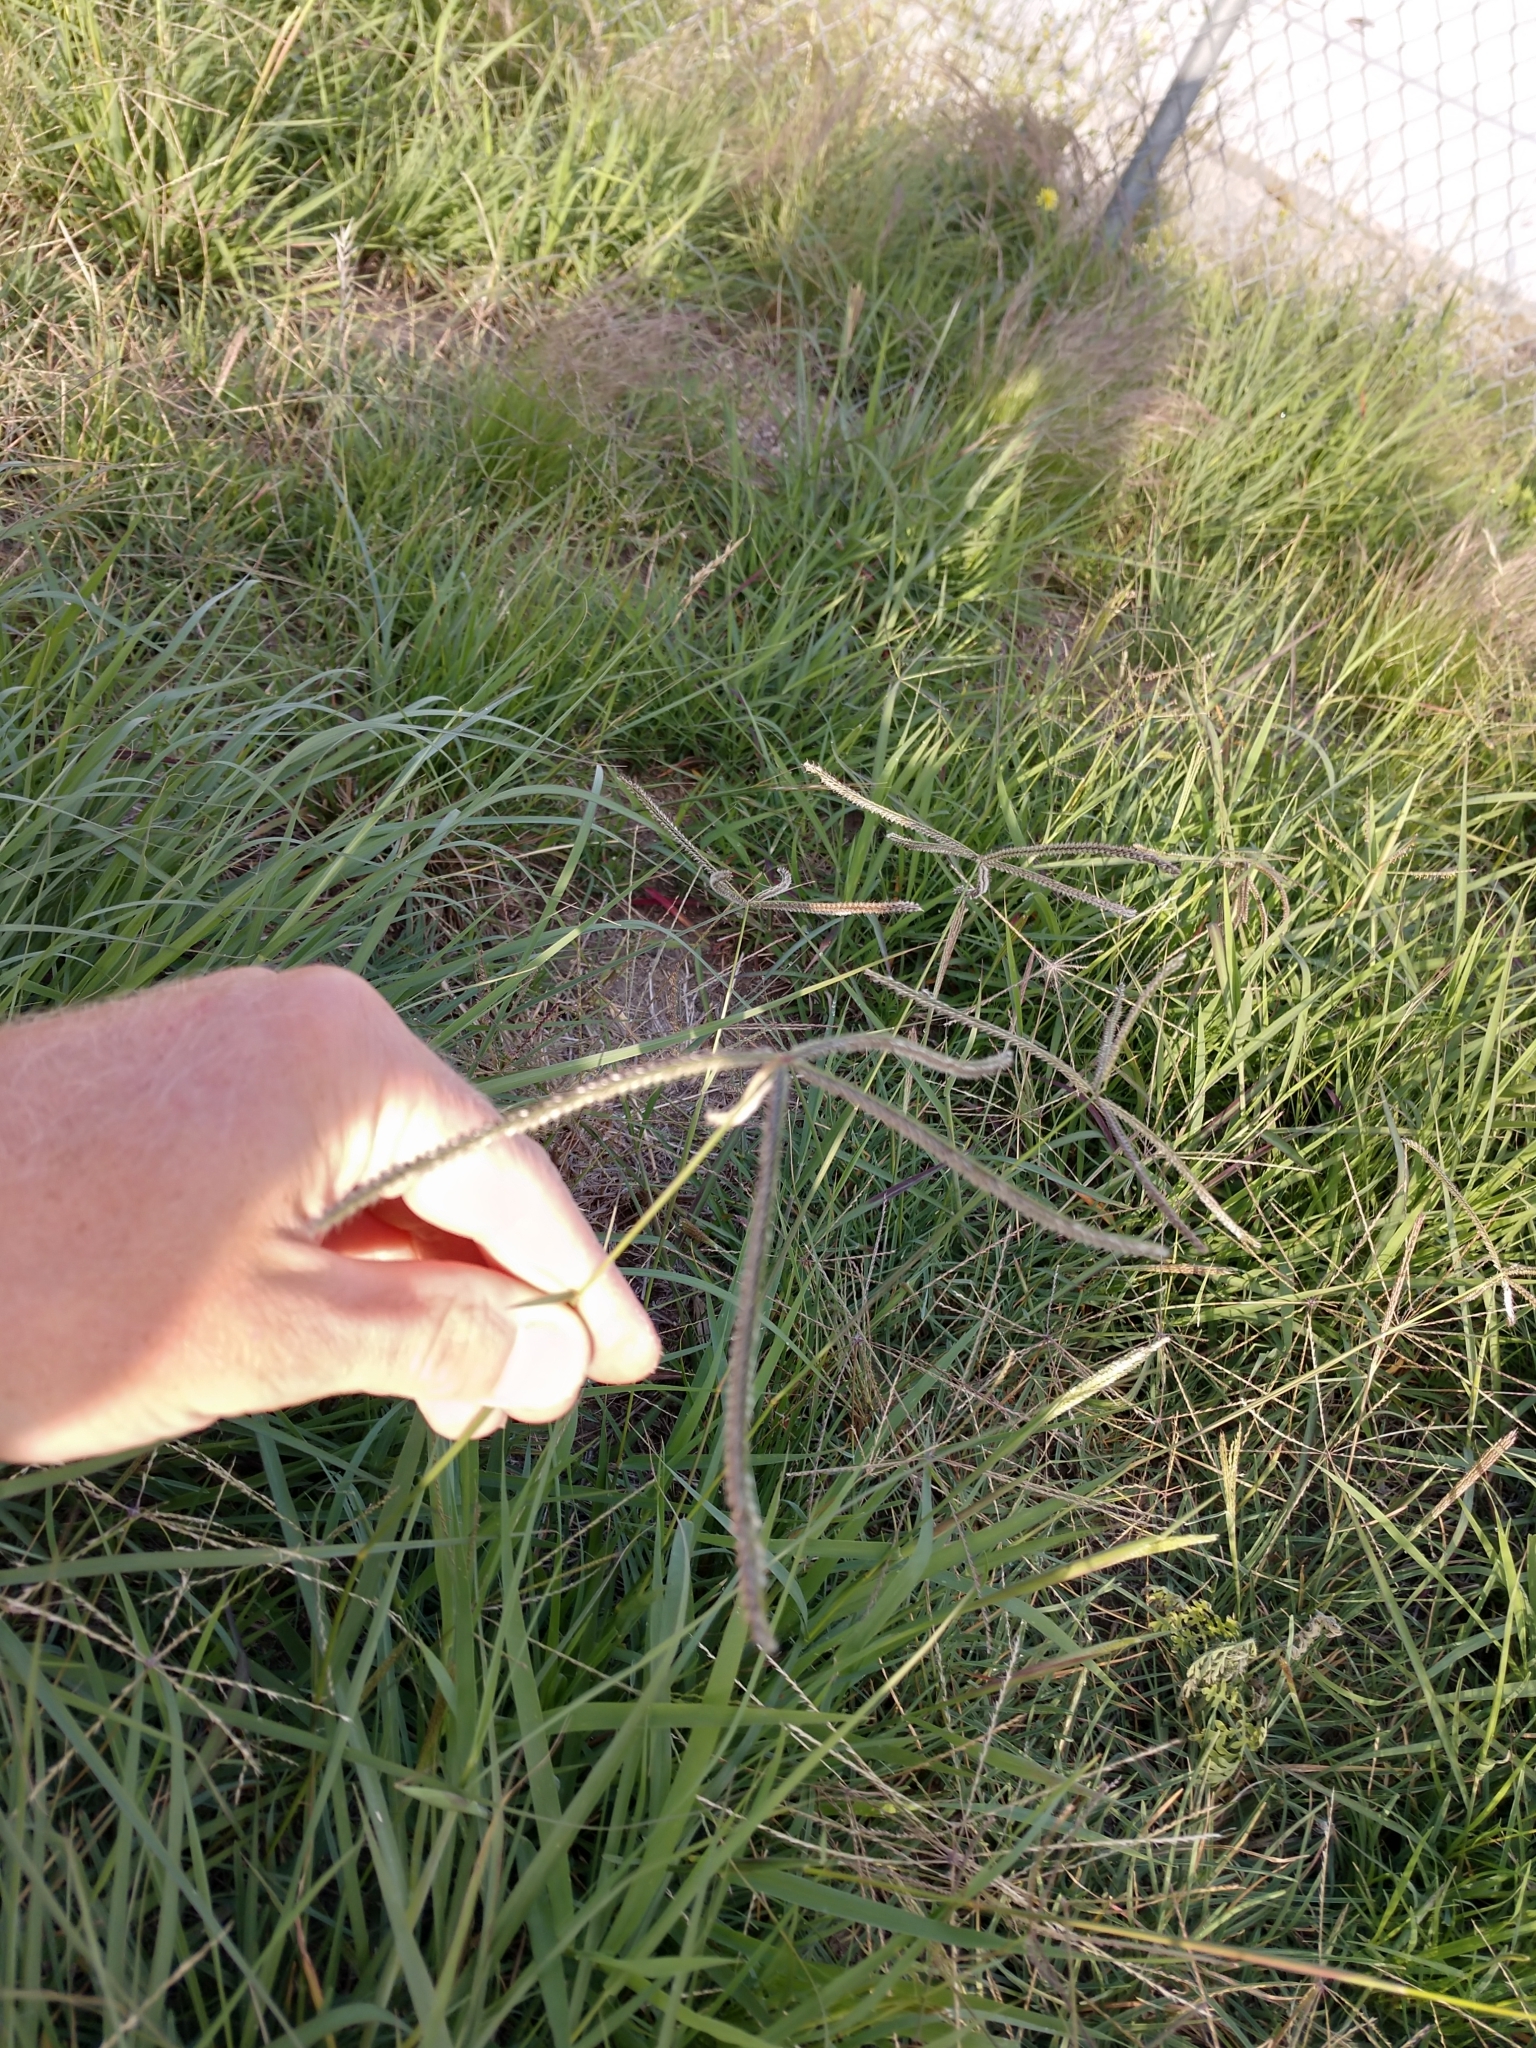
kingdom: Plantae
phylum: Tracheophyta
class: Liliopsida
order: Poales
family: Poaceae
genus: Stapfochloa
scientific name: Stapfochloa canterae
